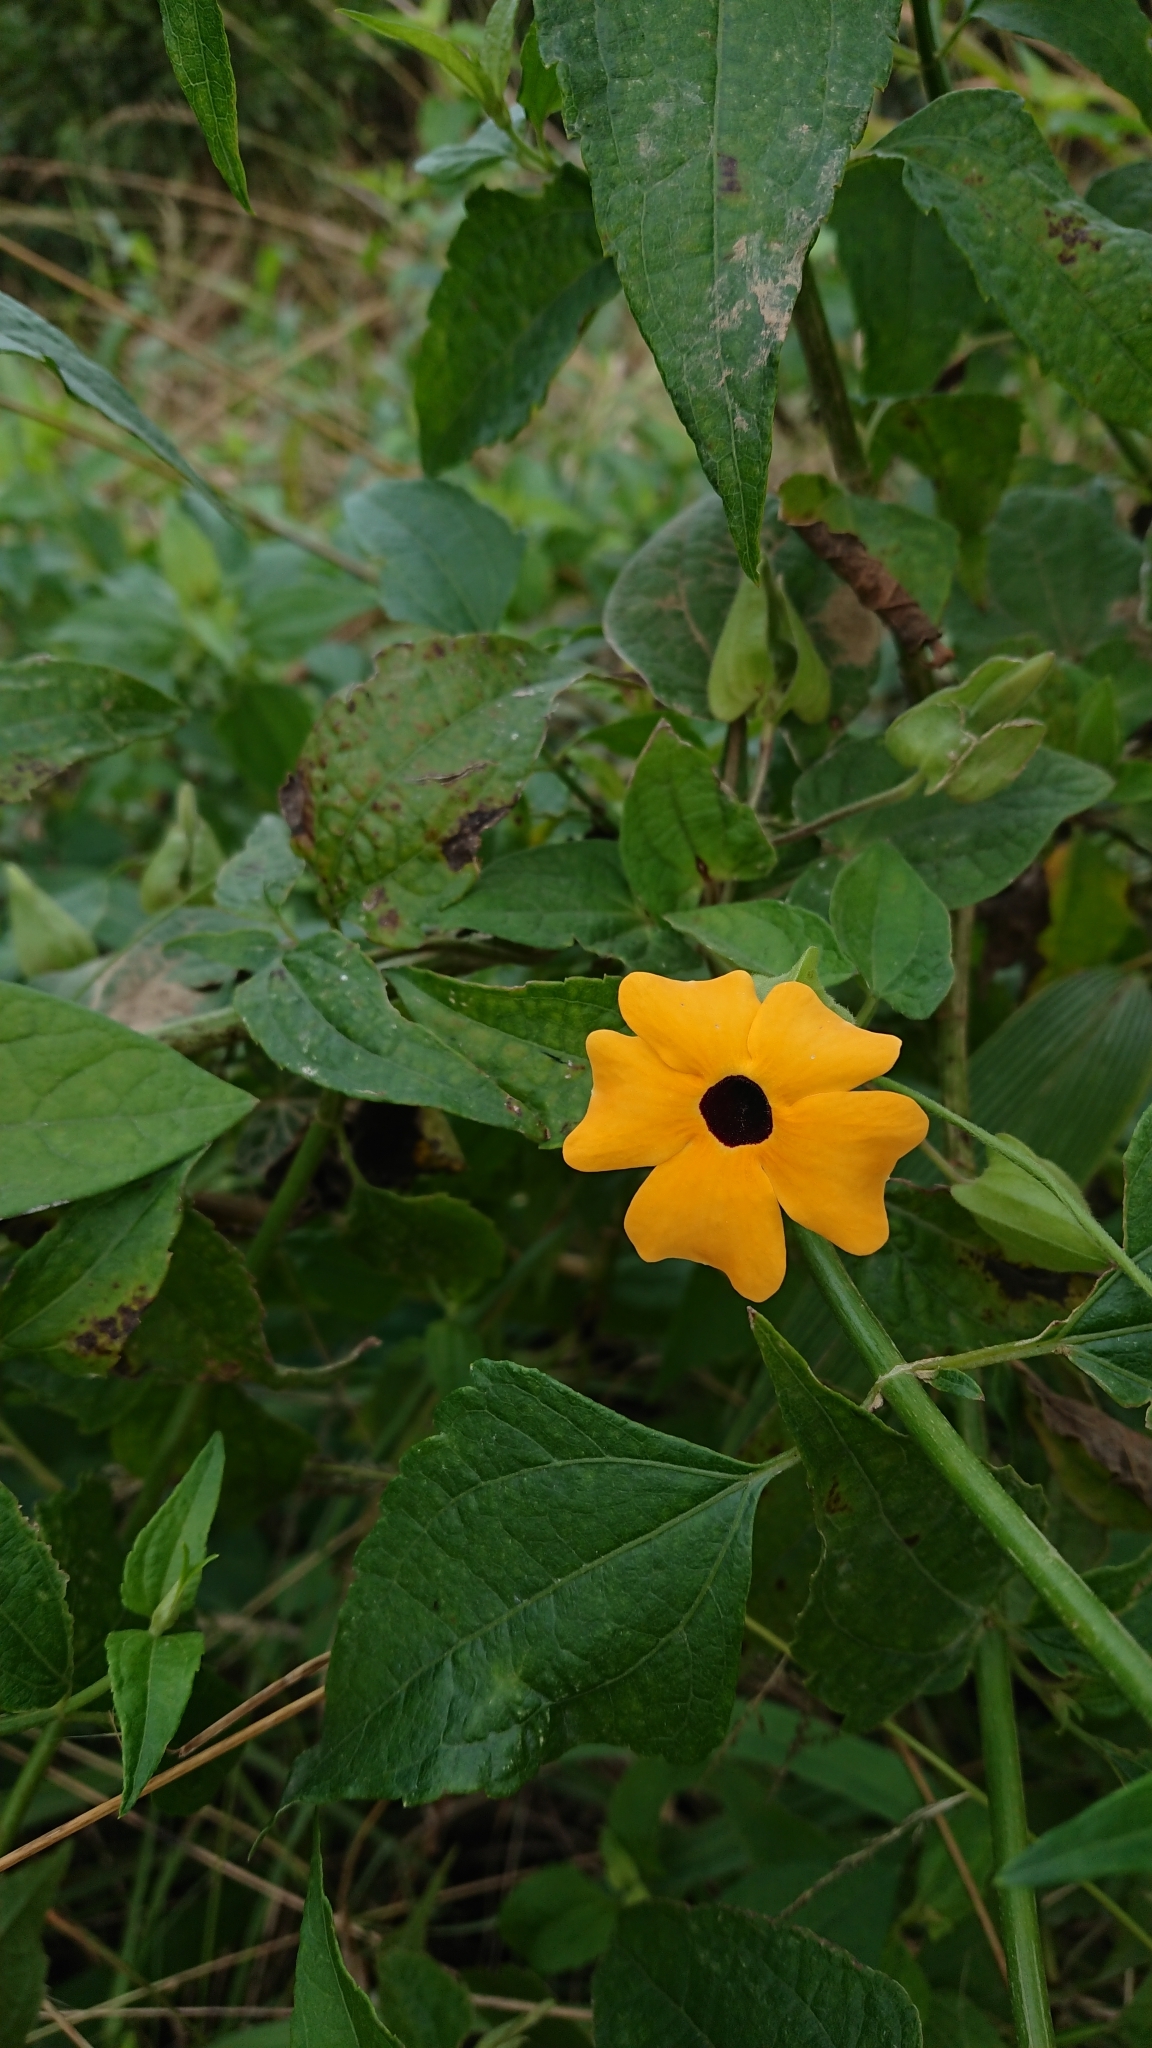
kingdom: Plantae
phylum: Tracheophyta
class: Magnoliopsida
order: Lamiales
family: Acanthaceae
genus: Thunbergia
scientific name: Thunbergia alata
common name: Blackeyed susan vine
